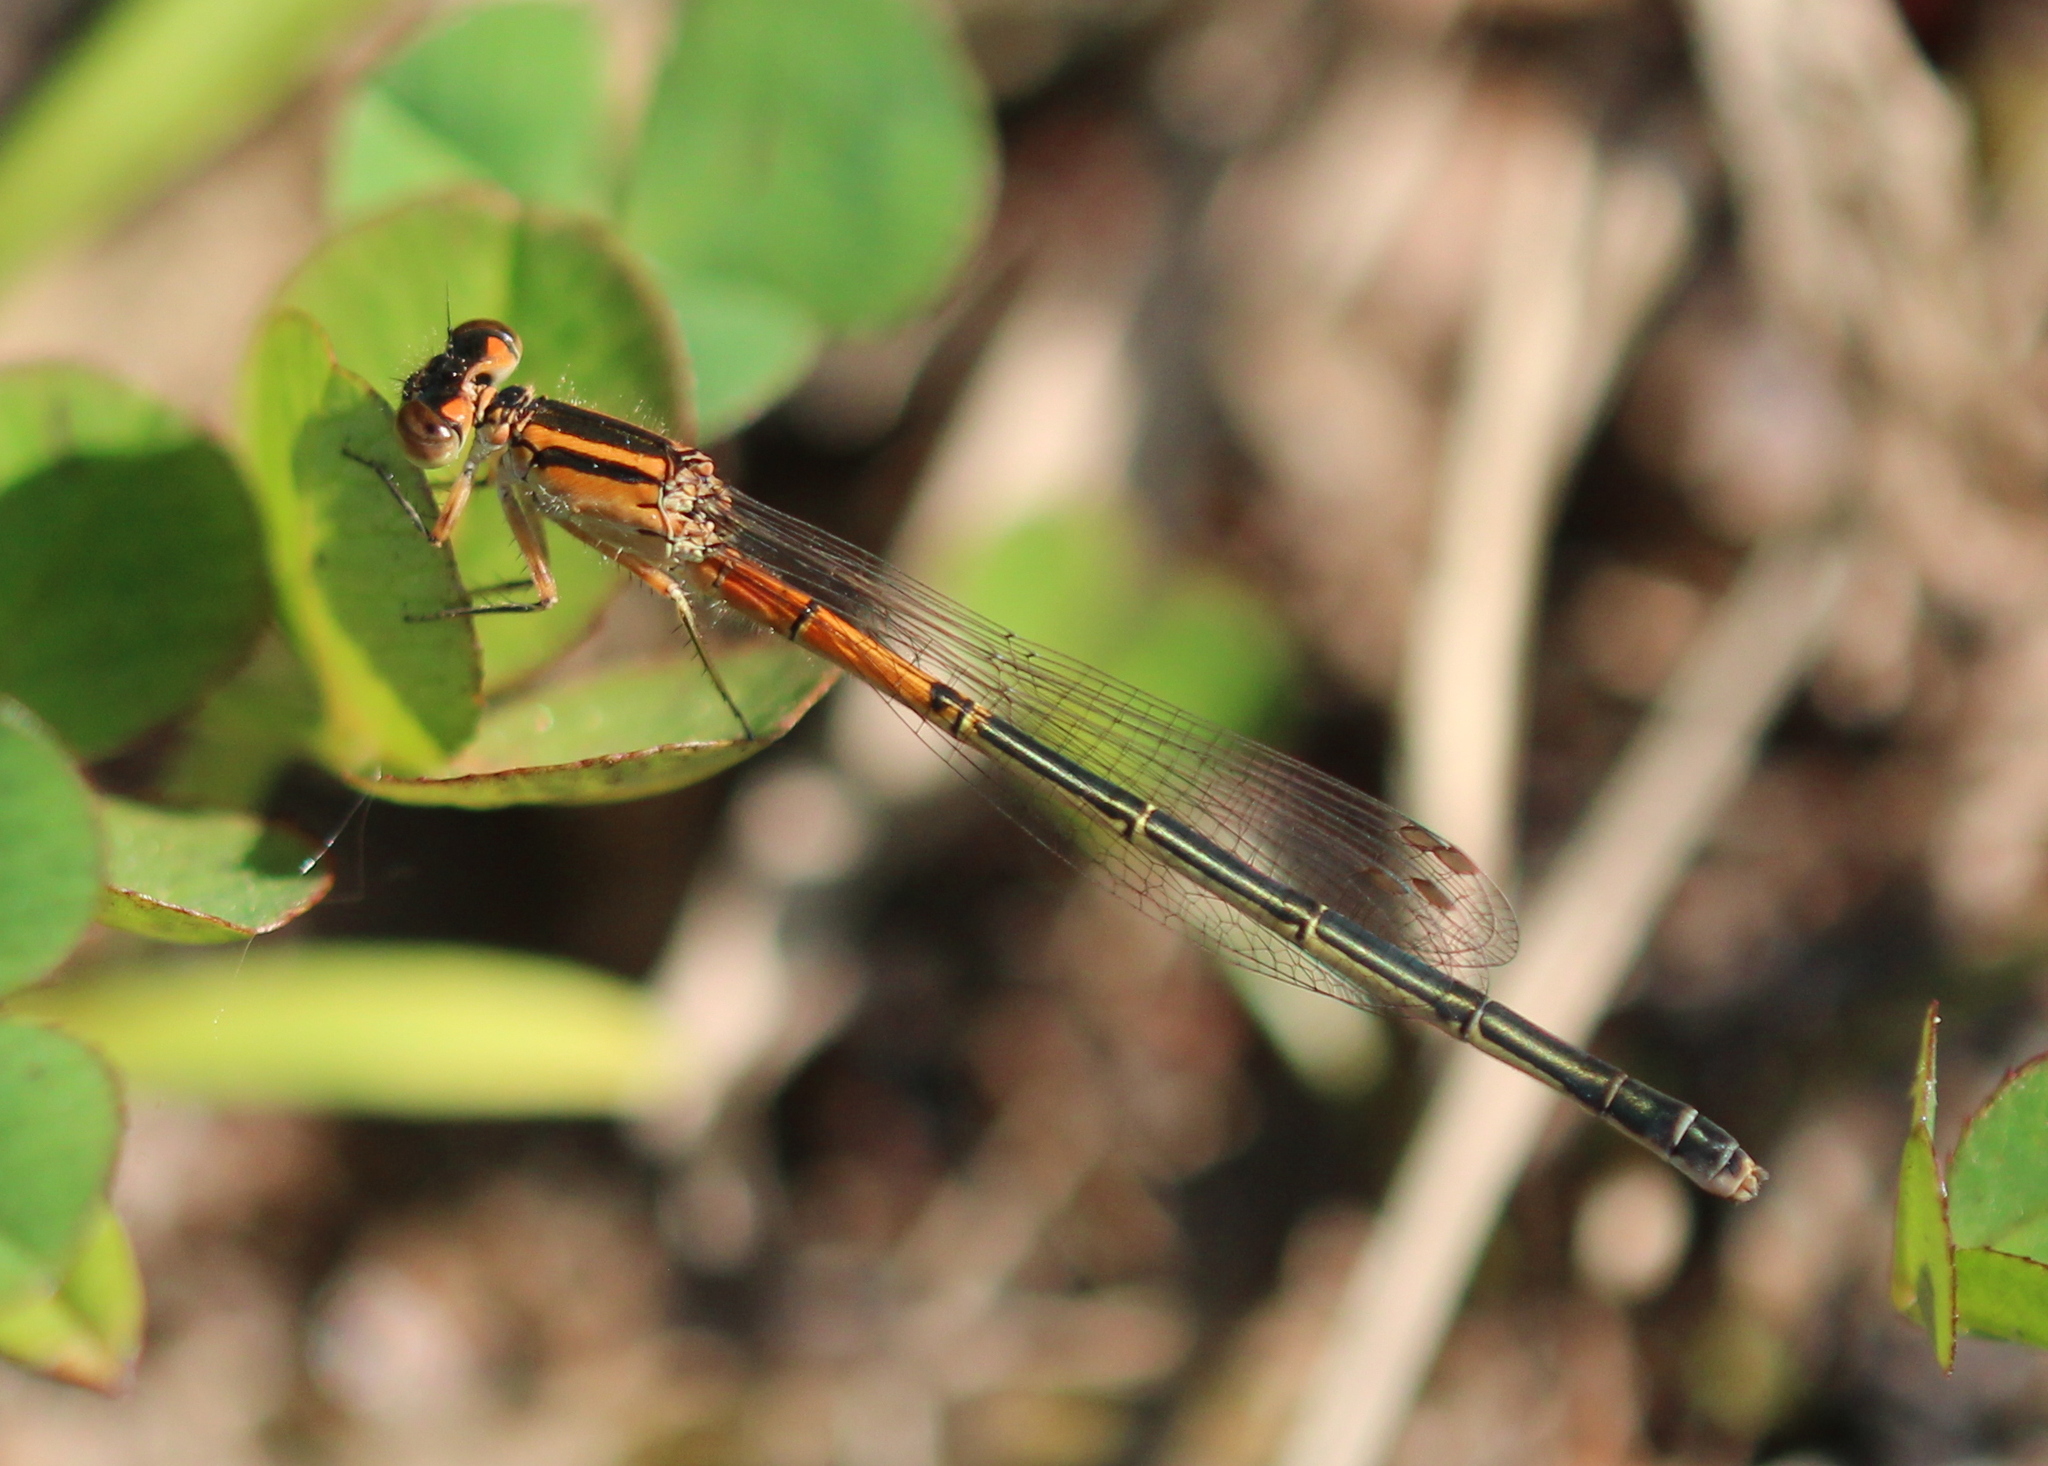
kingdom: Animalia
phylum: Arthropoda
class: Insecta
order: Odonata
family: Coenagrionidae
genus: Ischnura
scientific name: Ischnura verticalis
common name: Eastern forktail
